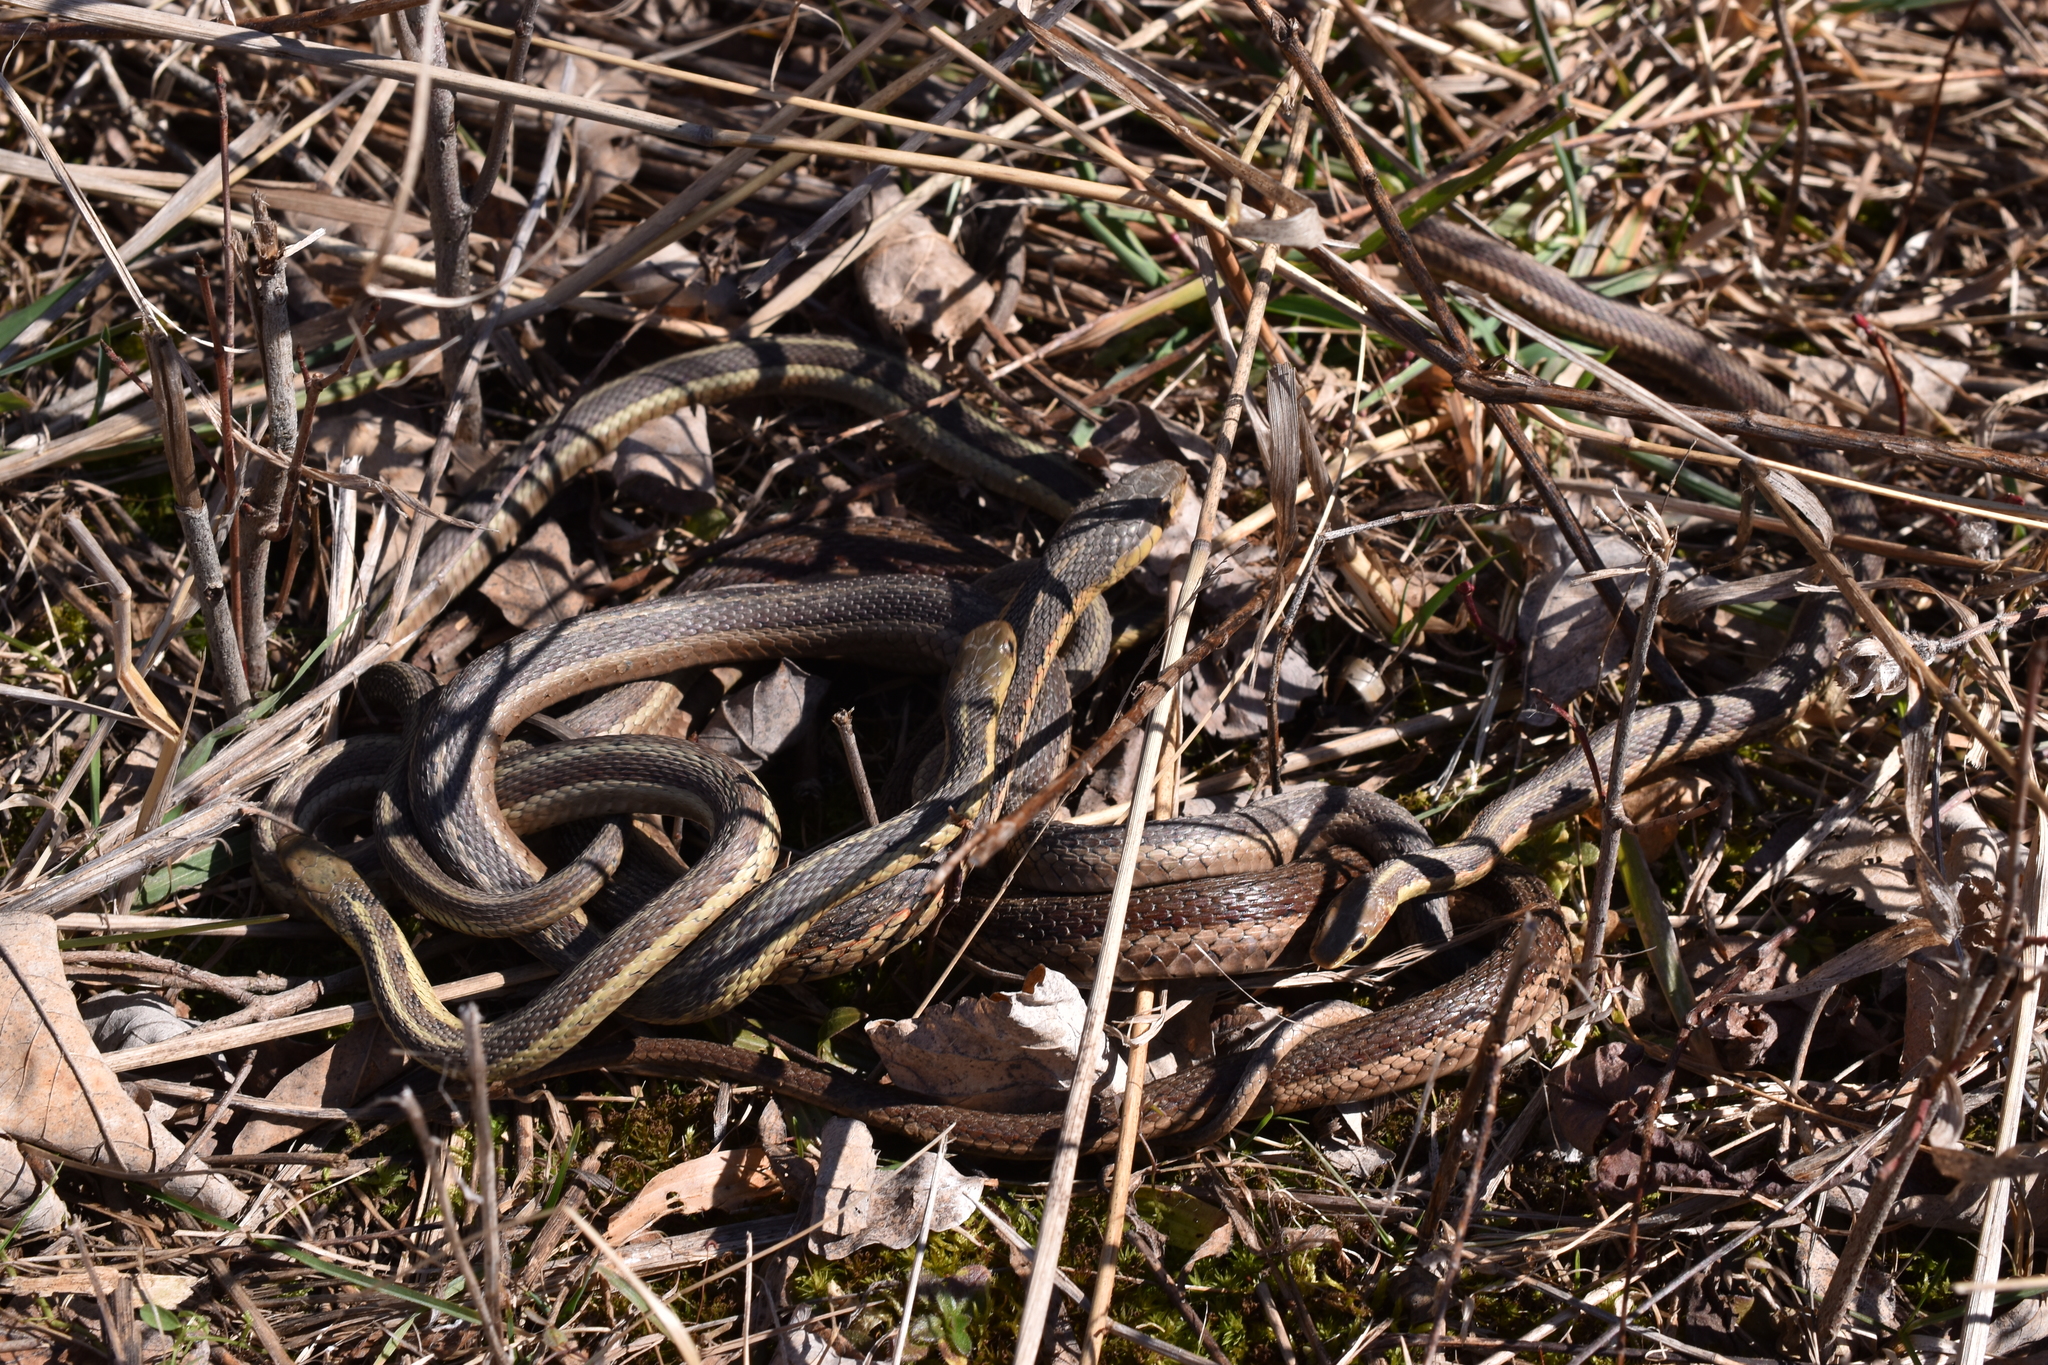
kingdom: Animalia
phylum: Chordata
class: Squamata
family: Colubridae
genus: Thamnophis
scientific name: Thamnophis sirtalis
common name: Common garter snake
